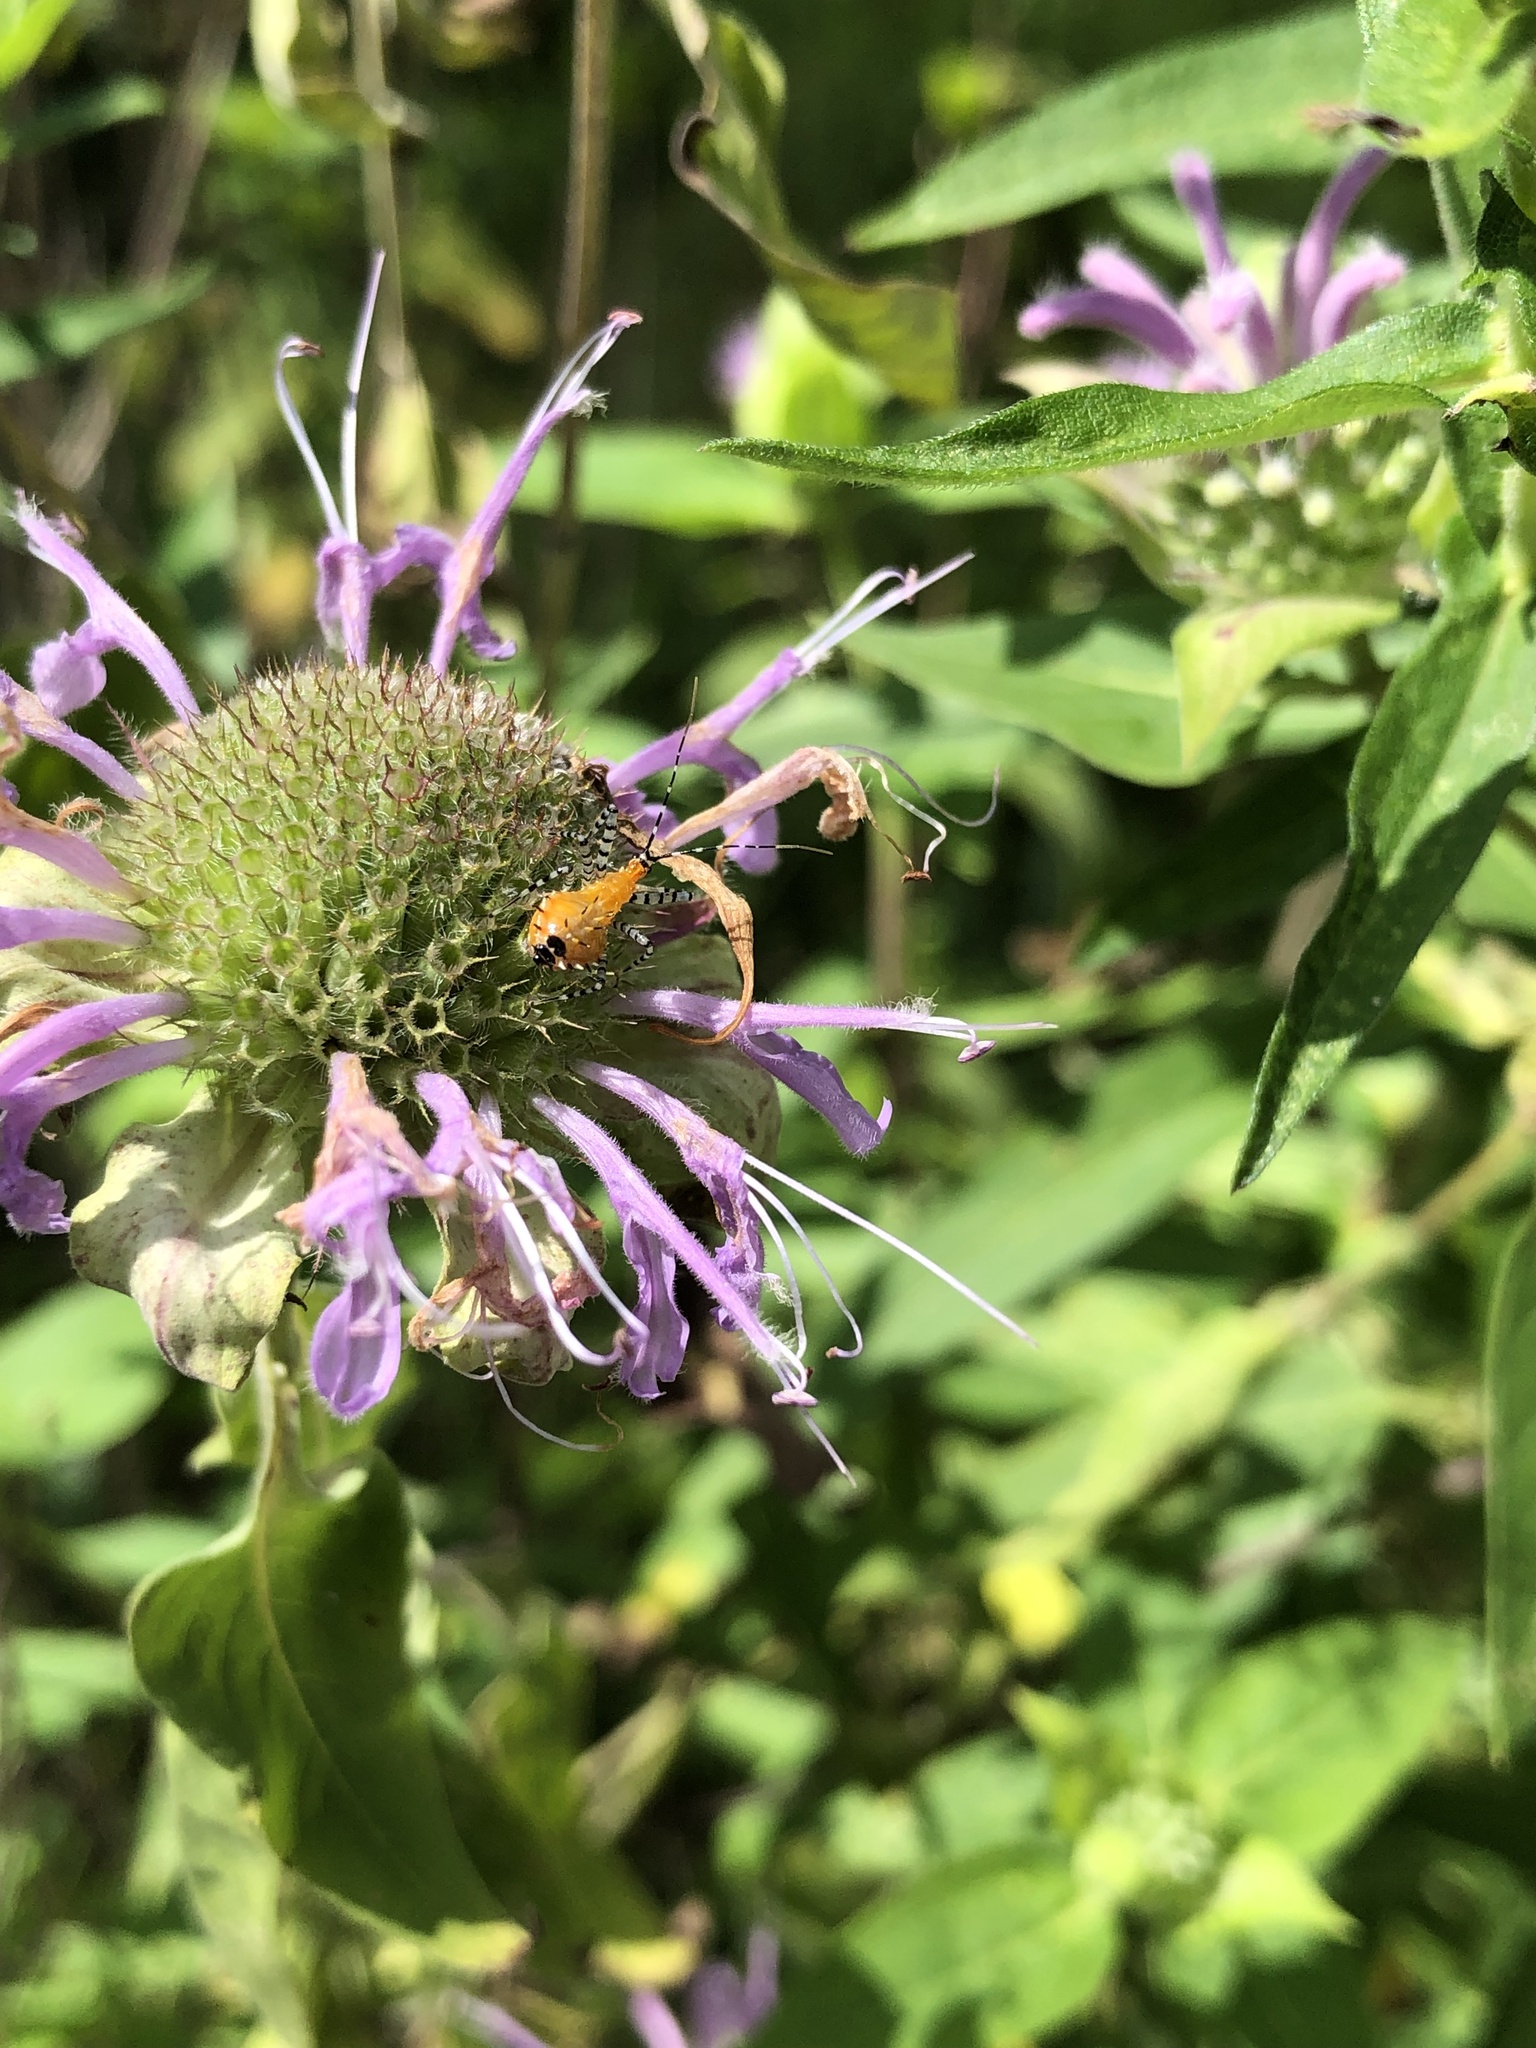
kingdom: Animalia
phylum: Arthropoda
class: Insecta
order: Hemiptera
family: Reduviidae
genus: Pselliopus
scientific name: Pselliopus cinctus
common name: Ringed assassin bug
